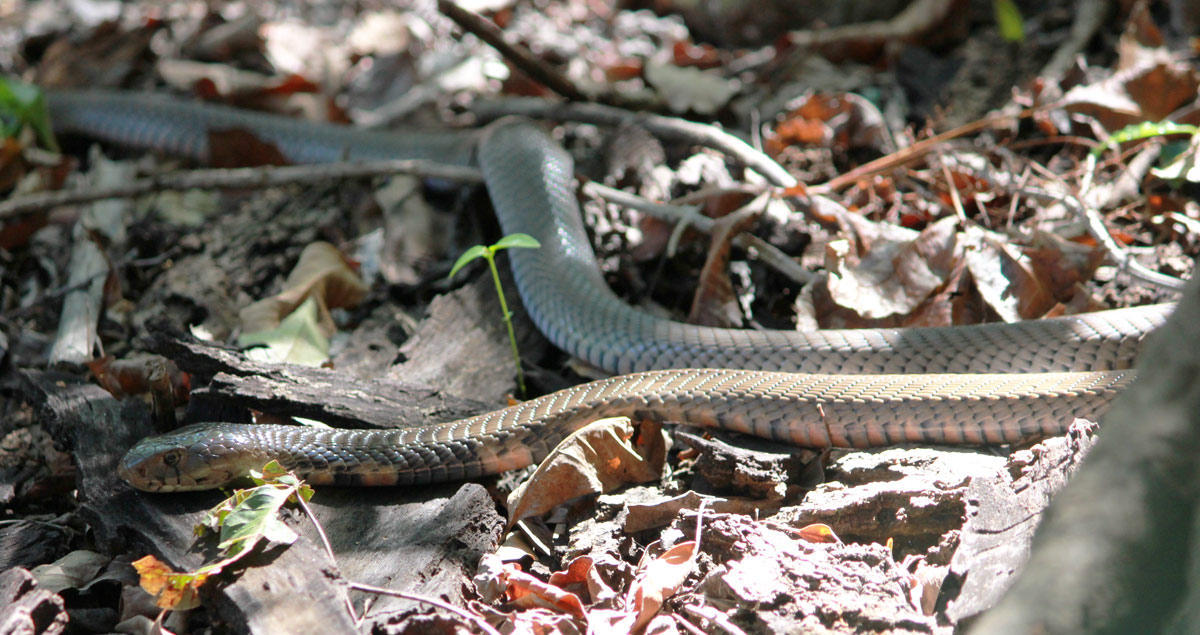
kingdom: Animalia
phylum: Chordata
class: Squamata
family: Elapidae
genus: Naja
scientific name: Naja mossambica
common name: Mozambique spitting cobra
